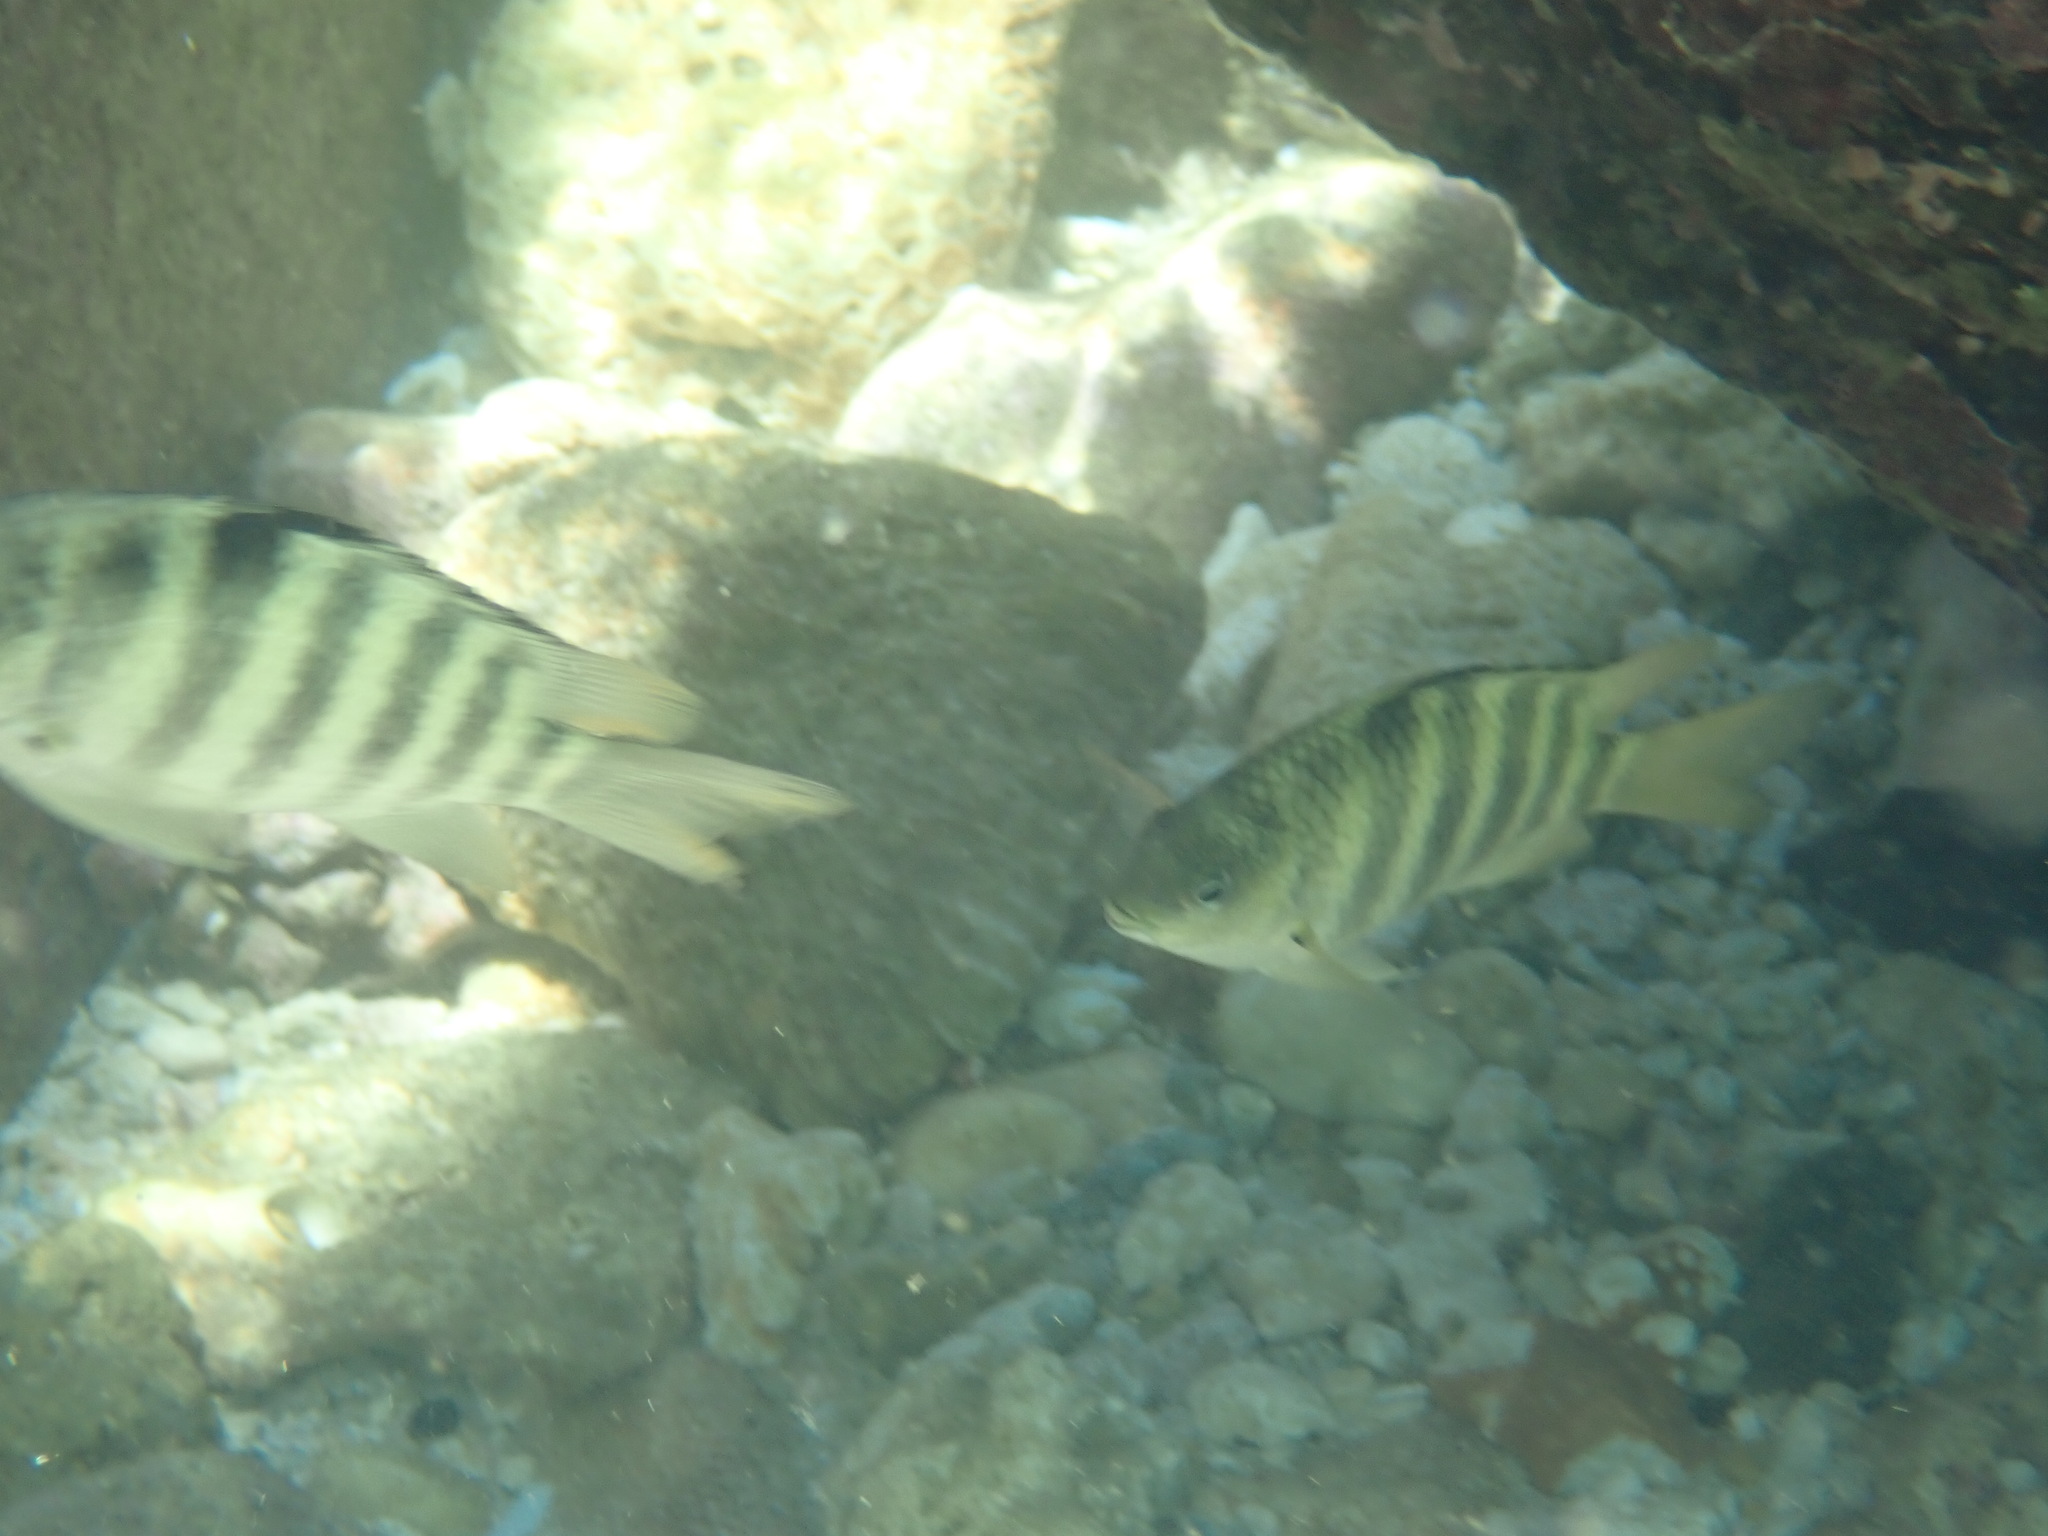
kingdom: Animalia
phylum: Chordata
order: Perciformes
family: Pomacentridae
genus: Abudefduf
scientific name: Abudefduf septemfasciatus
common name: Banded sergeant
